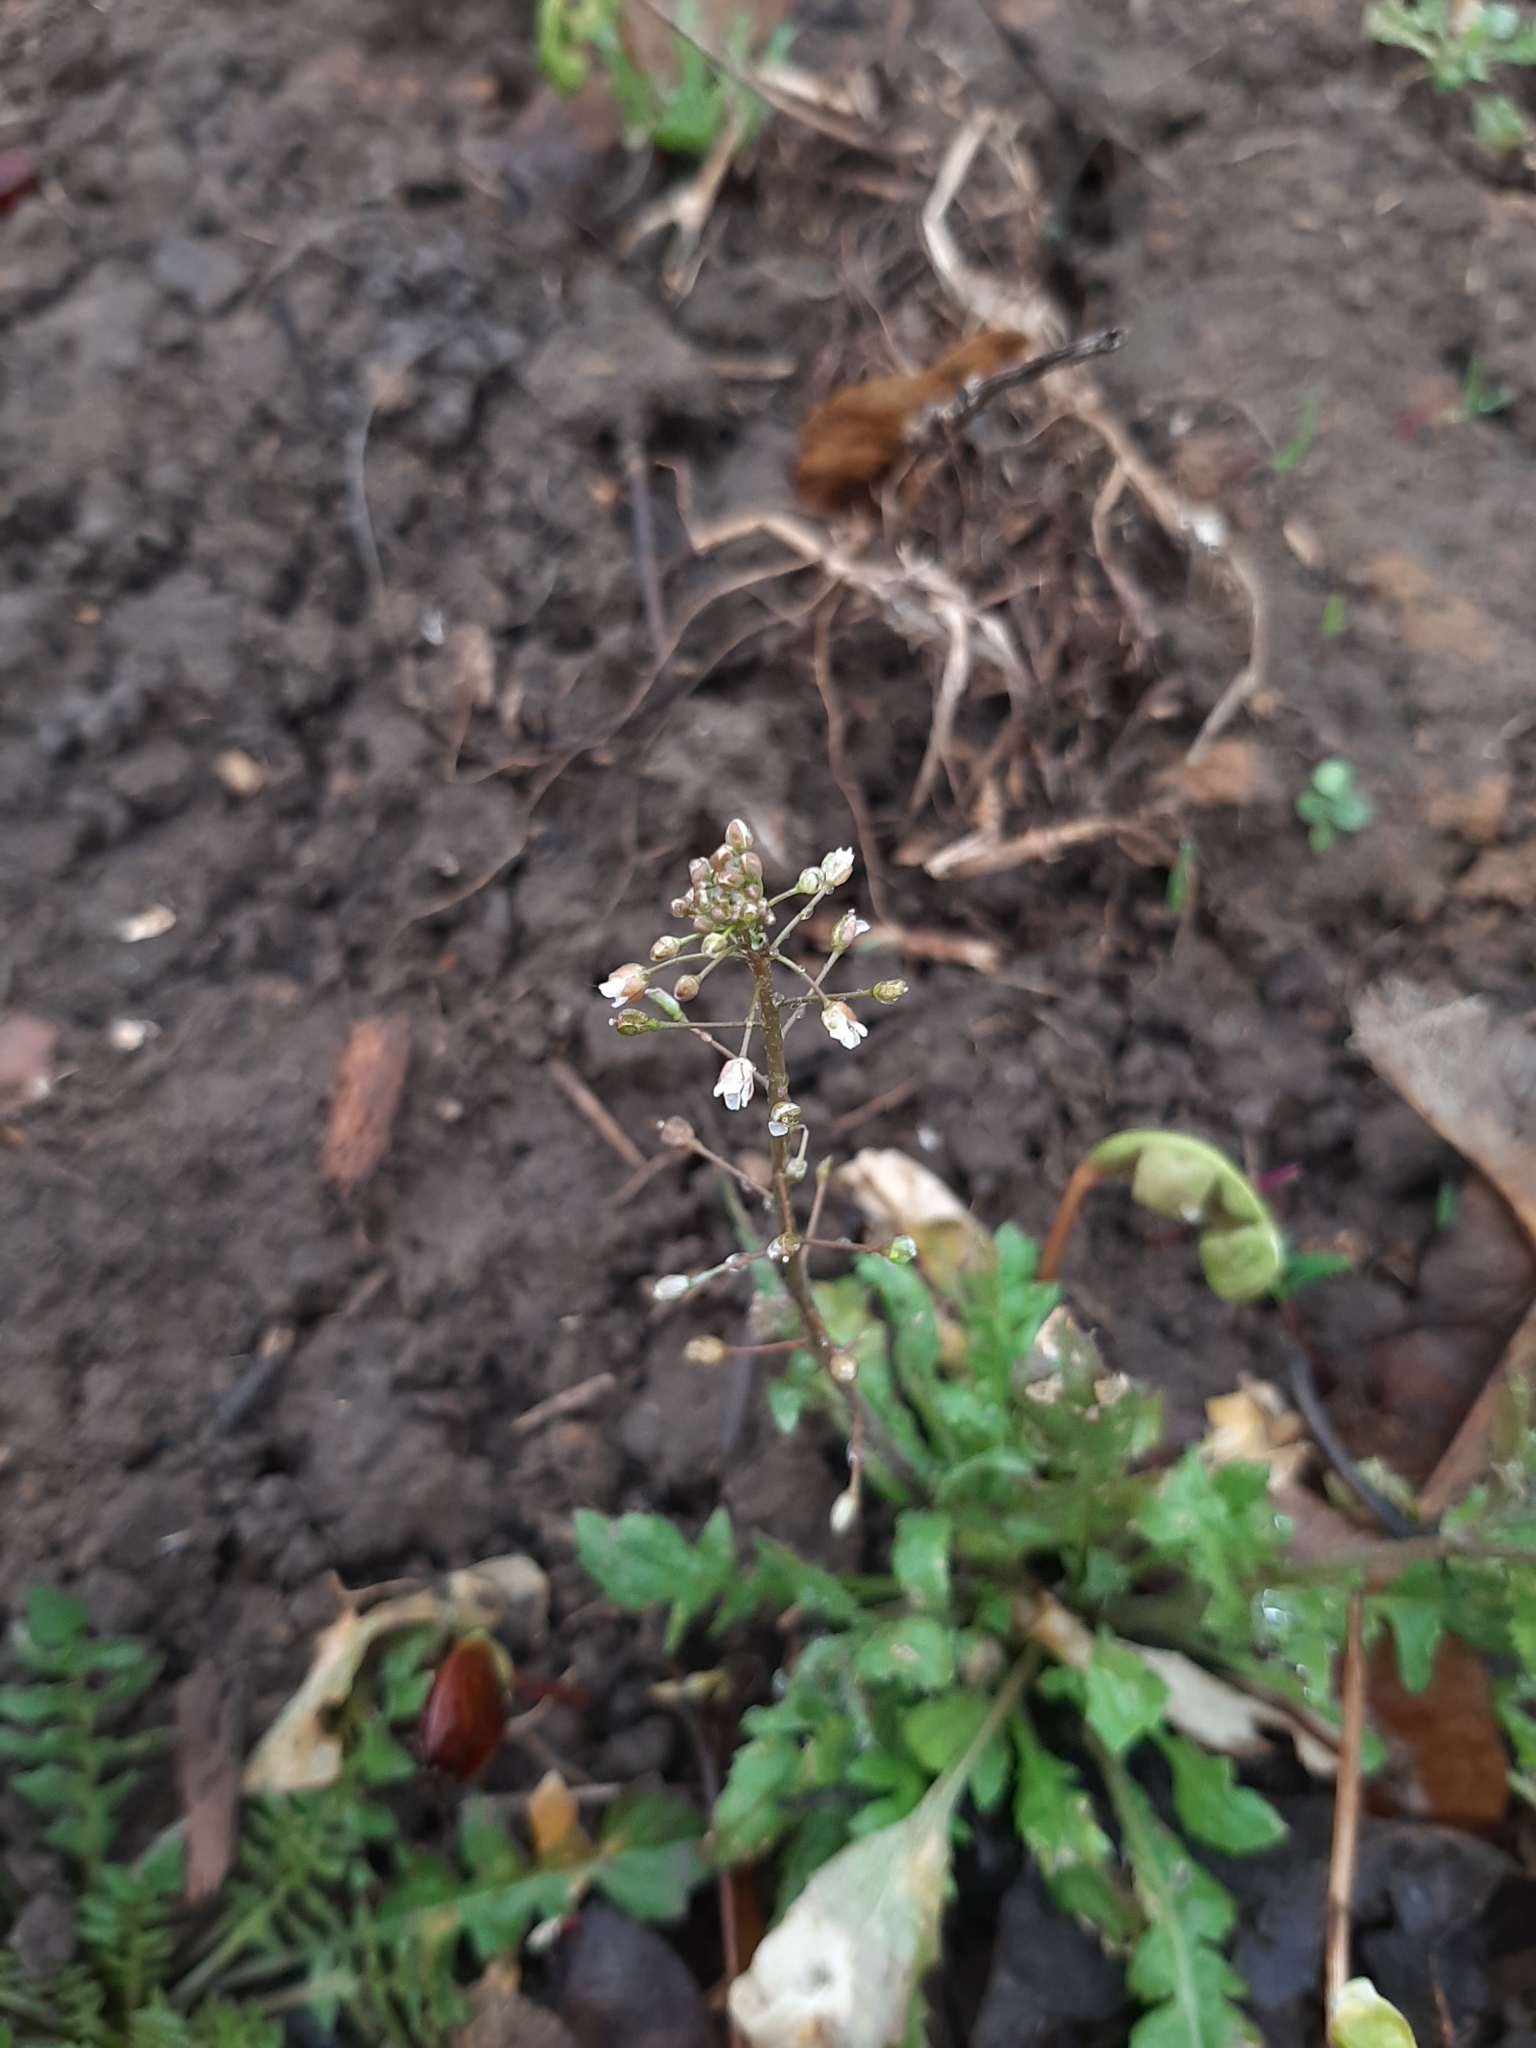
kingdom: Plantae
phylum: Tracheophyta
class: Magnoliopsida
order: Brassicales
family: Brassicaceae
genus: Capsella
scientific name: Capsella bursa-pastoris
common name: Shepherd's purse
